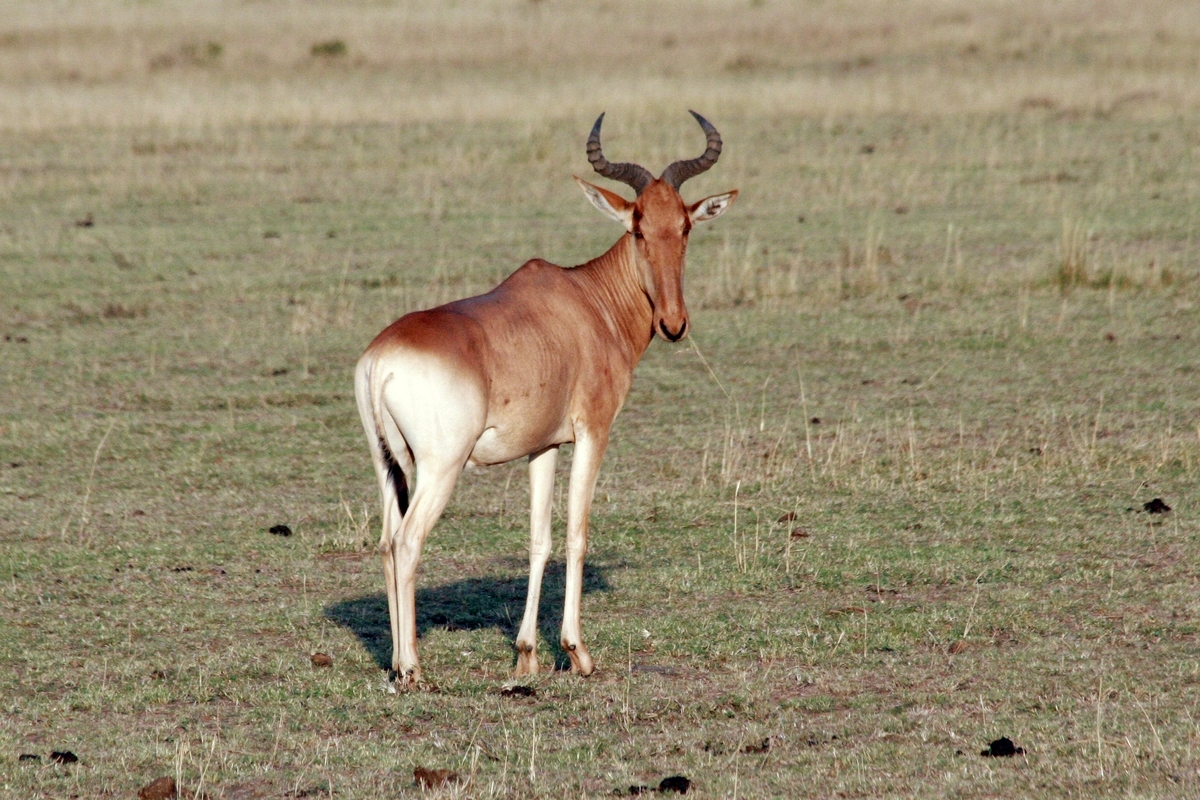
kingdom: Animalia
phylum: Chordata
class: Mammalia
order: Artiodactyla
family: Bovidae
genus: Alcelaphus
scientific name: Alcelaphus buselaphus
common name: Hartebeest
